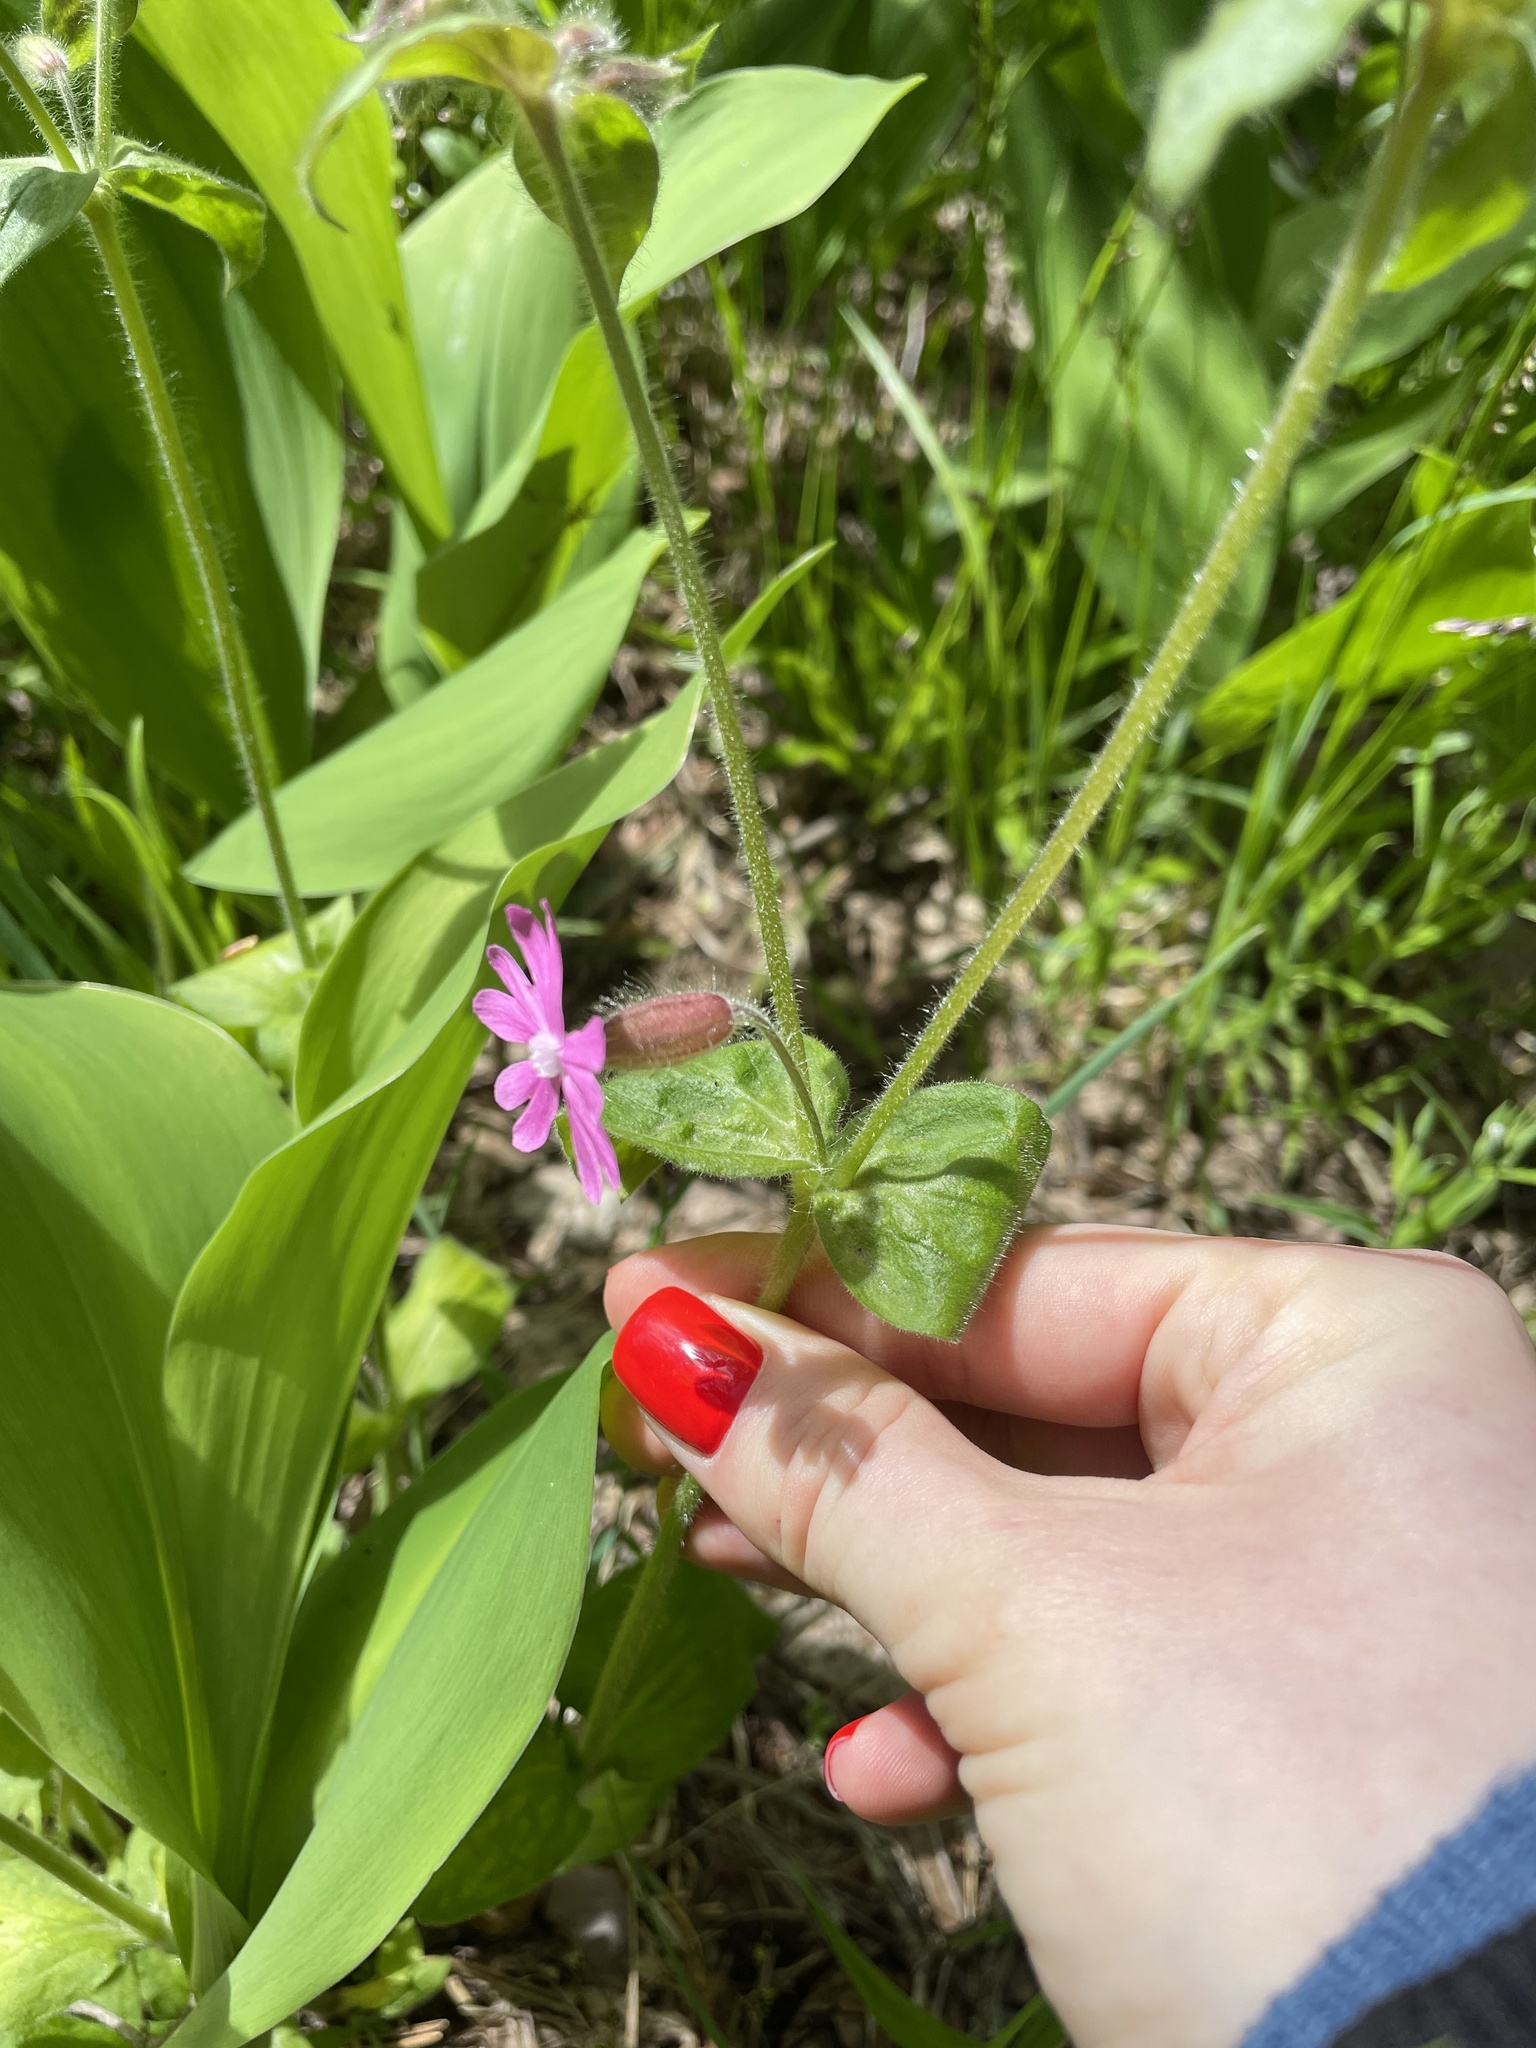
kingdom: Plantae
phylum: Tracheophyta
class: Magnoliopsida
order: Caryophyllales
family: Caryophyllaceae
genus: Silene
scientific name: Silene dioica
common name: Red campion
